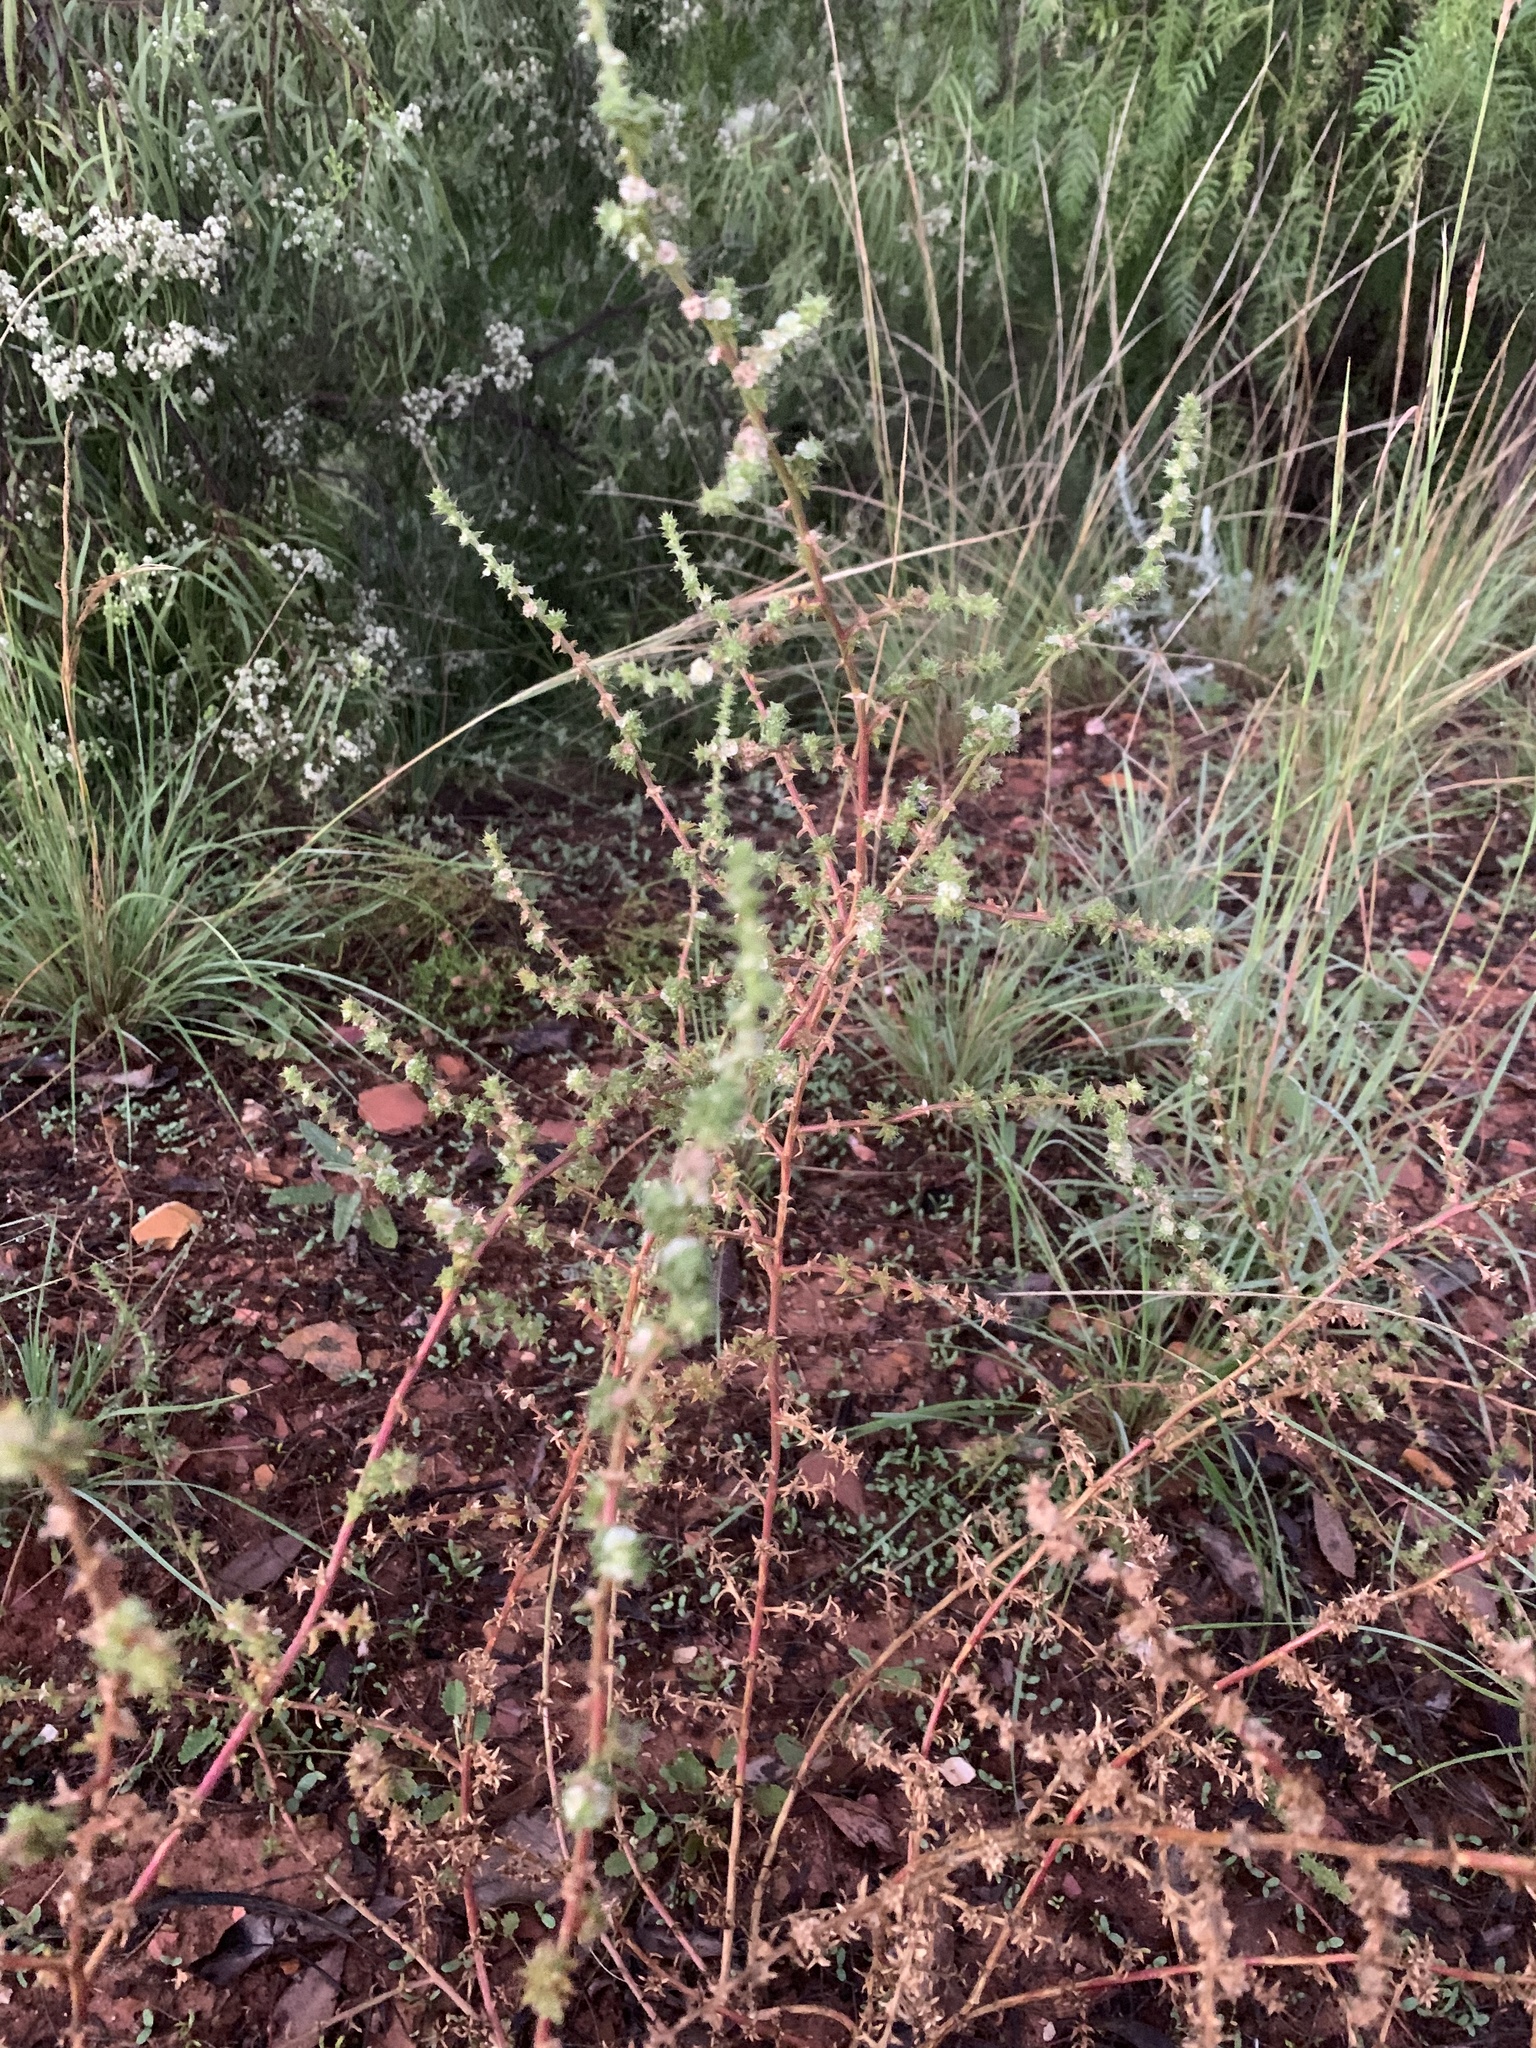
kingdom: Plantae
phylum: Tracheophyta
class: Magnoliopsida
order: Caryophyllales
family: Amaranthaceae
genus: Salsola
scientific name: Salsola australis
